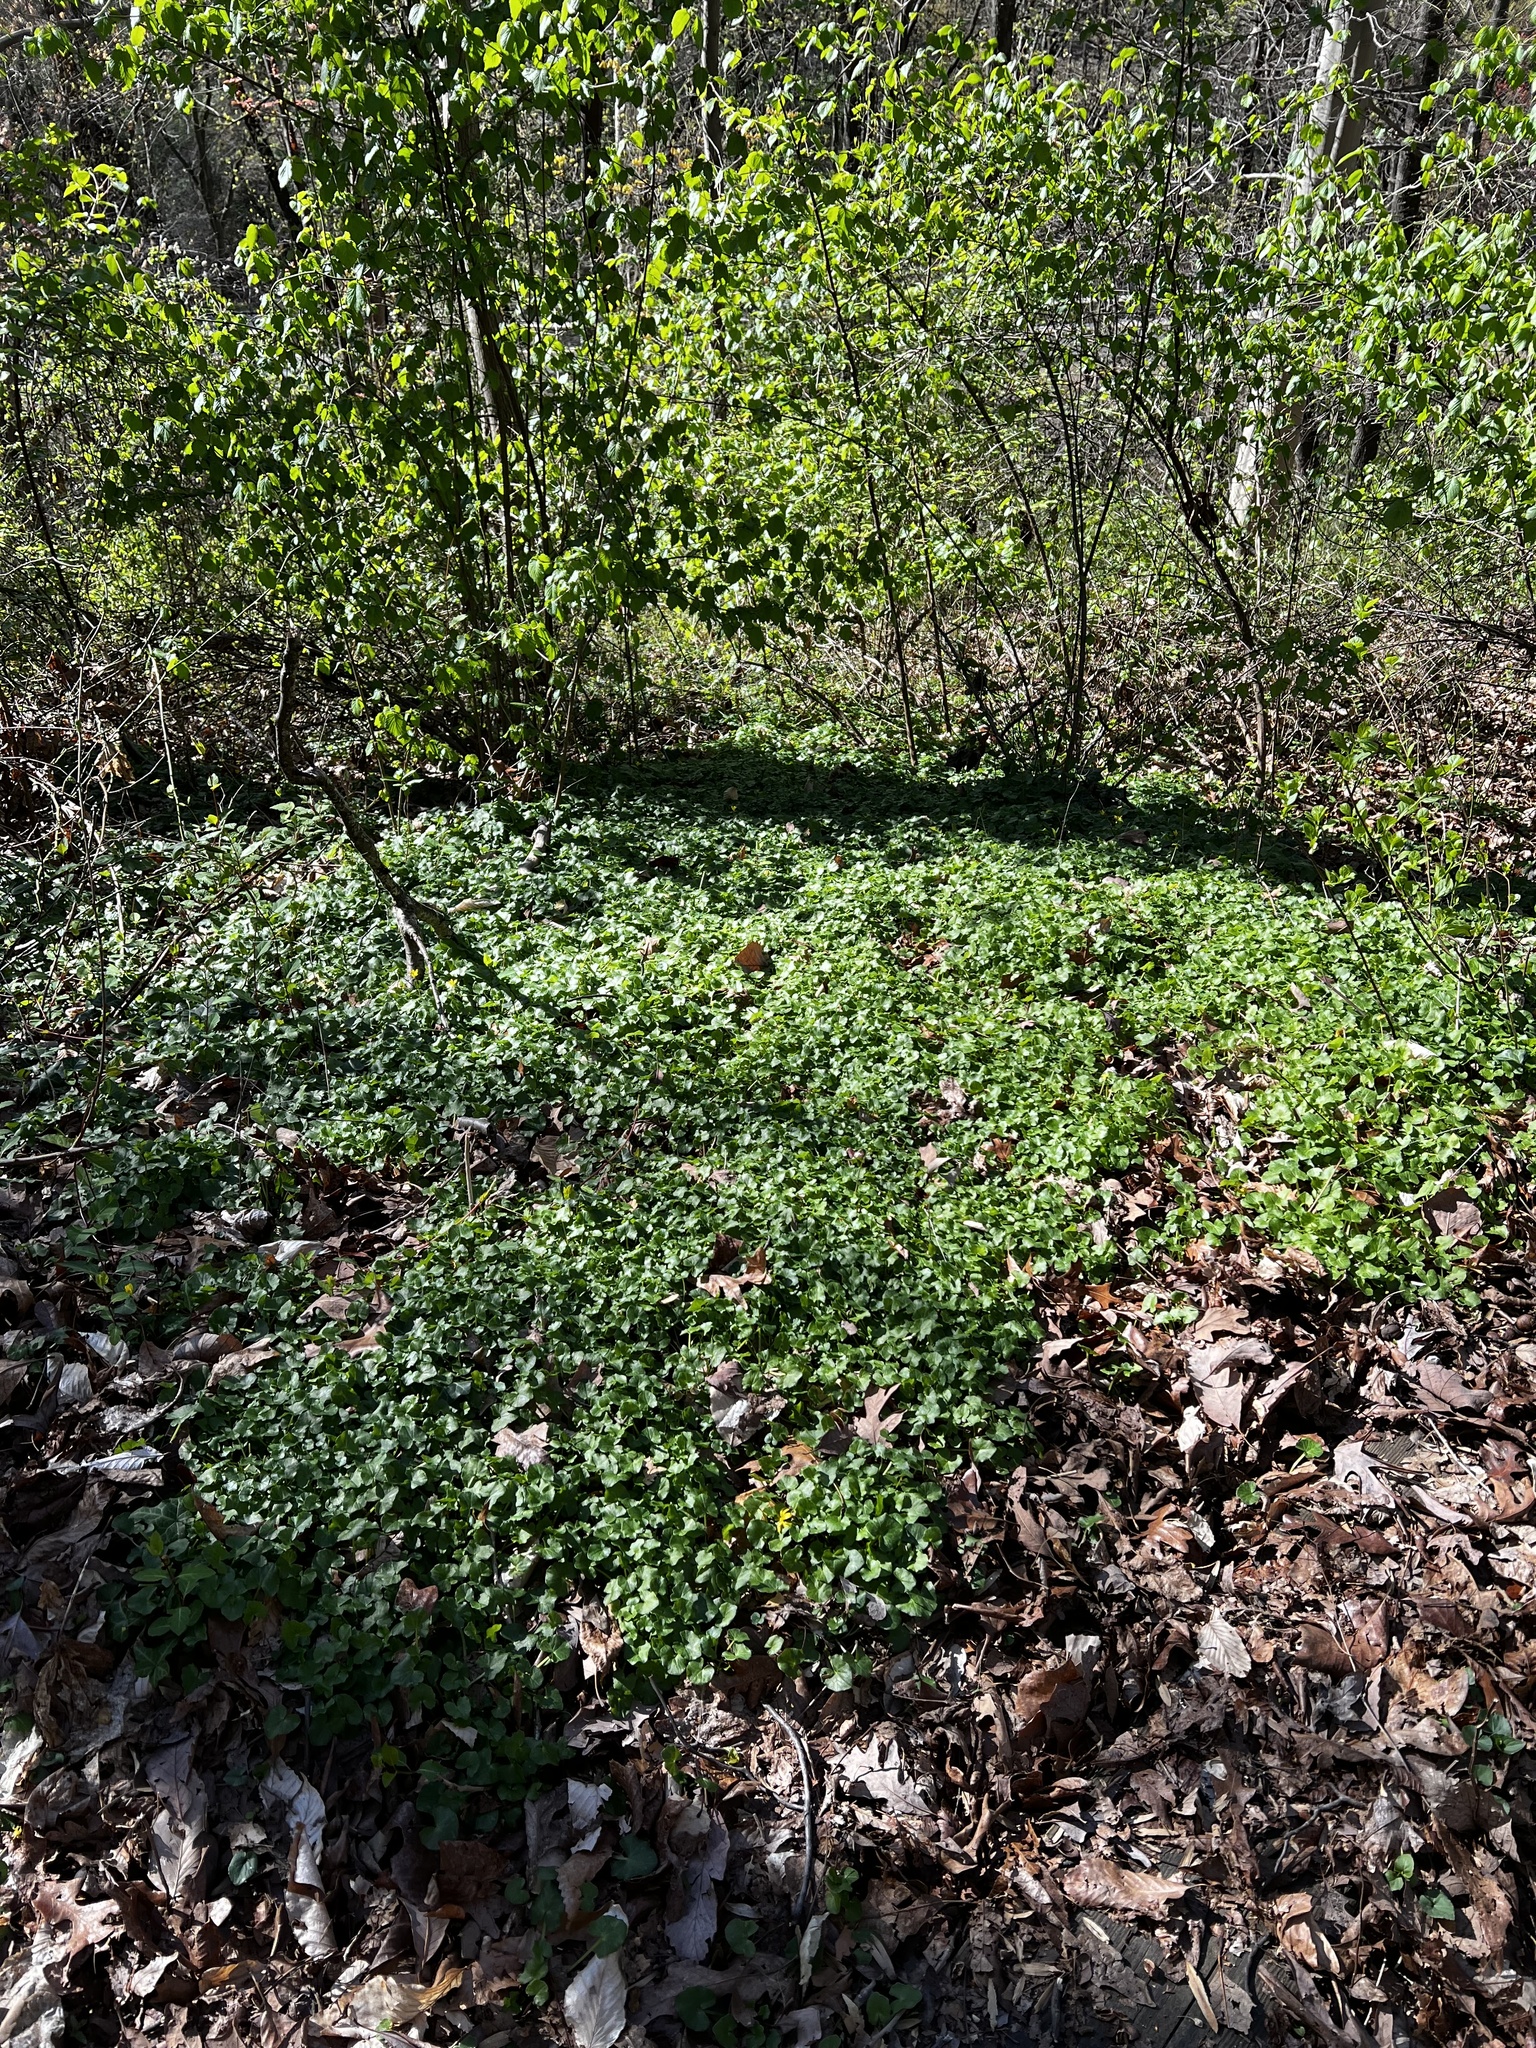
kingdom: Plantae
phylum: Tracheophyta
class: Magnoliopsida
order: Ranunculales
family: Ranunculaceae
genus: Ficaria
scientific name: Ficaria verna
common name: Lesser celandine
